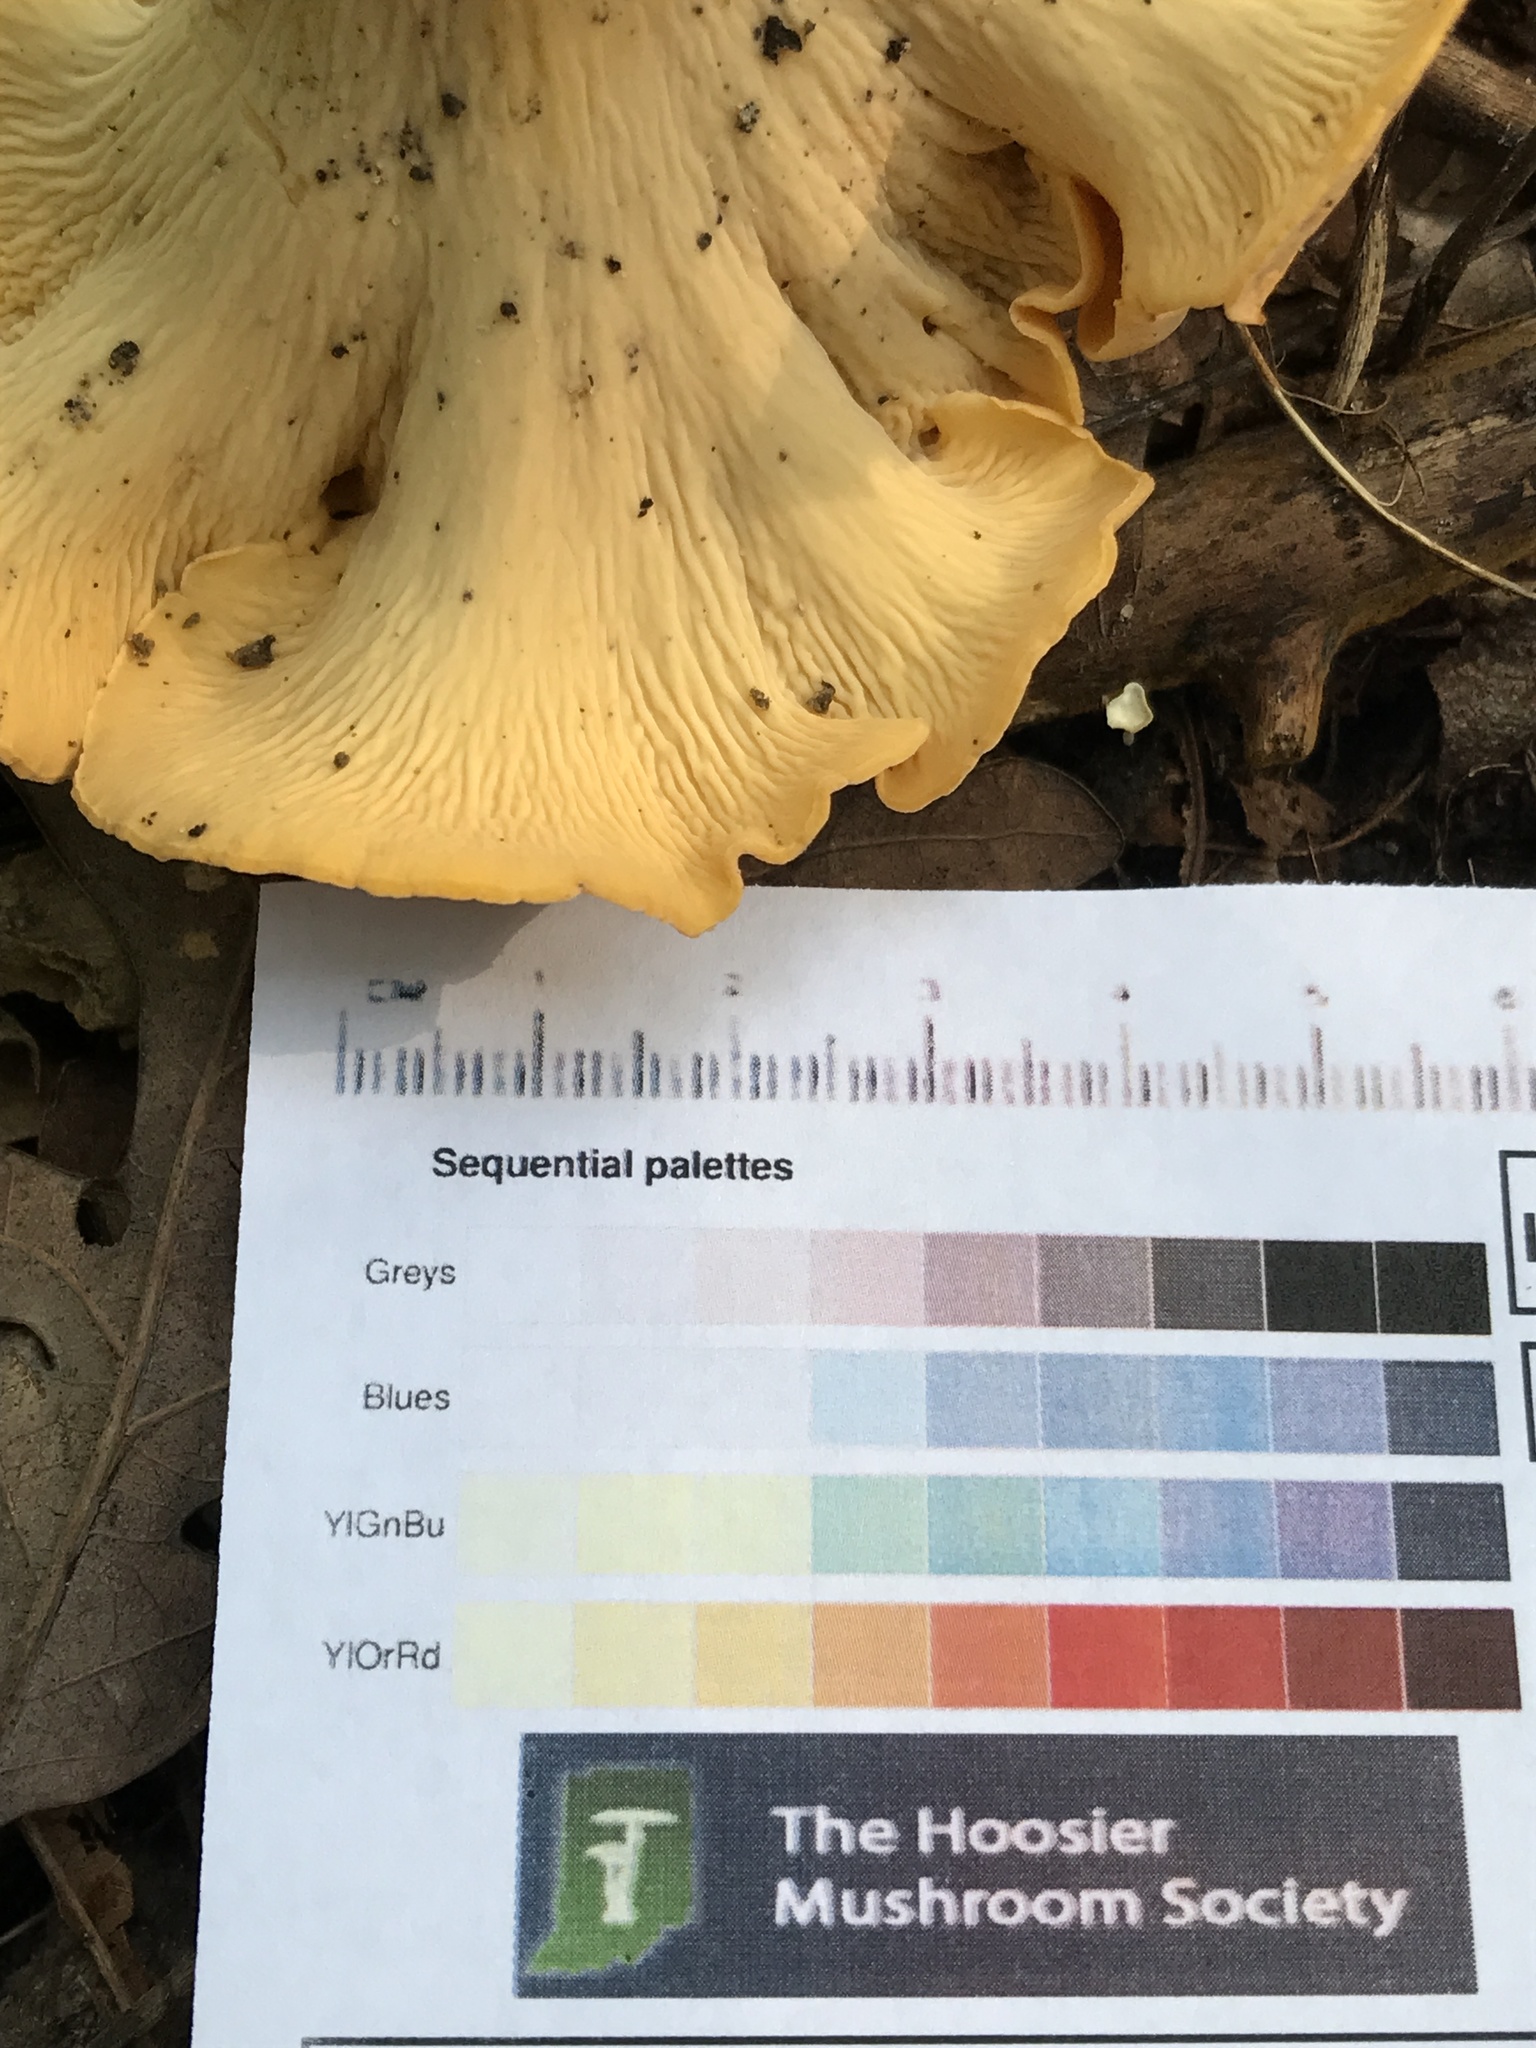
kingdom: Fungi
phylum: Basidiomycota
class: Agaricomycetes
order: Cantharellales
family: Hydnaceae
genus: Cantharellus
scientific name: Cantharellus flavolateritius
